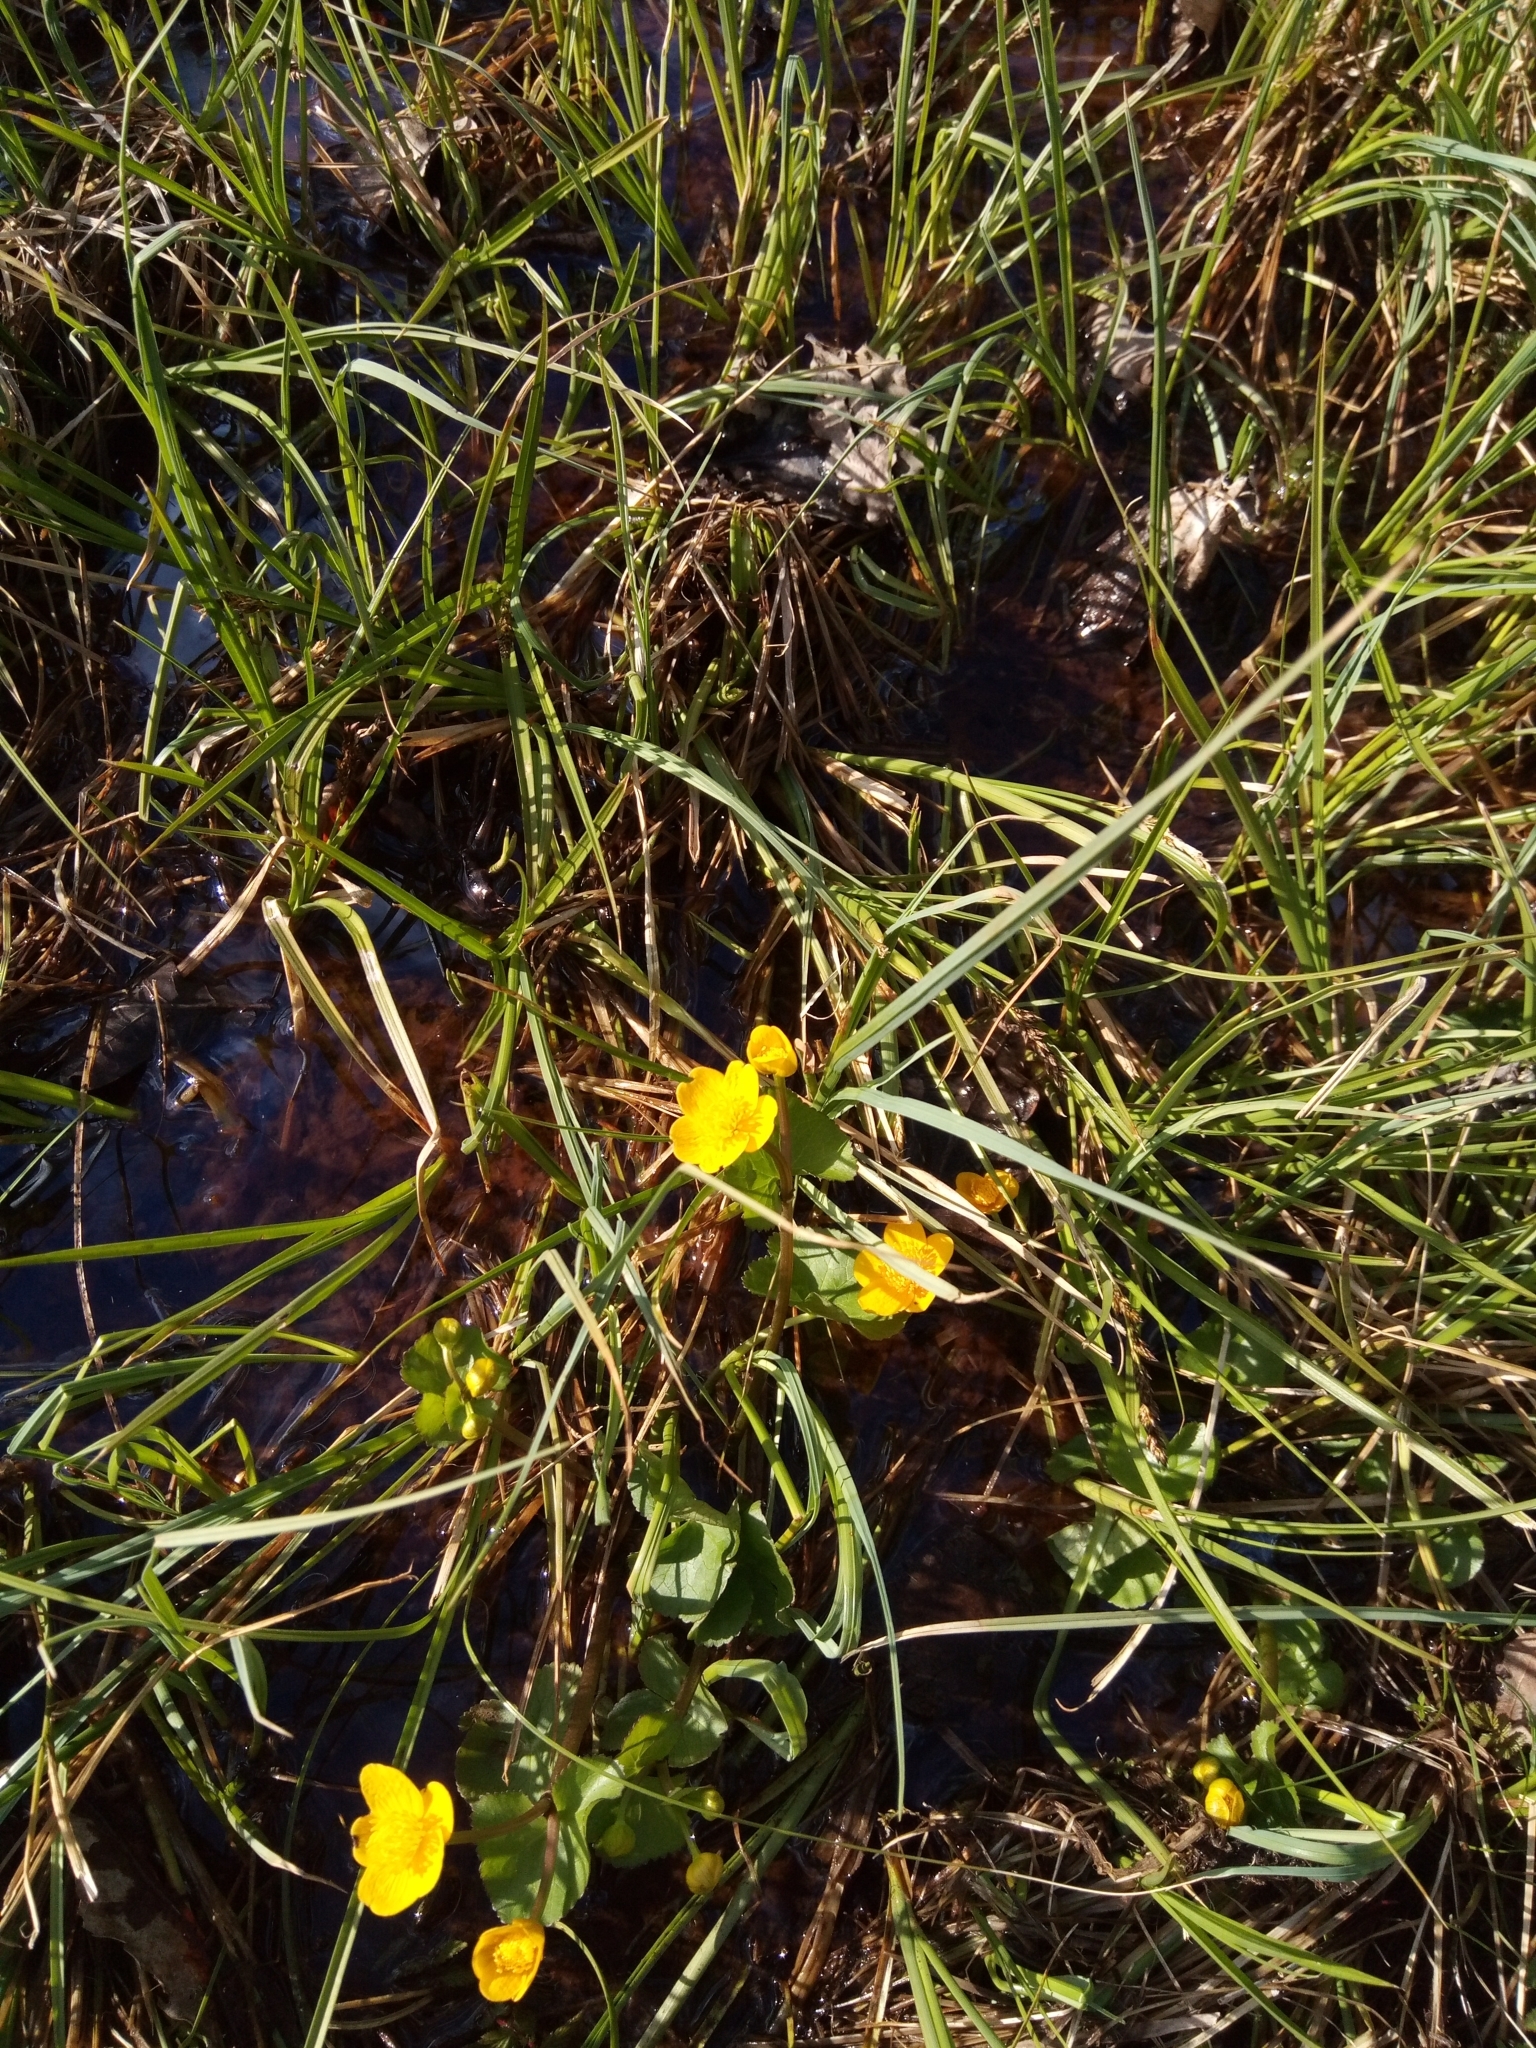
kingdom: Plantae
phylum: Tracheophyta
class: Magnoliopsida
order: Ranunculales
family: Ranunculaceae
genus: Caltha
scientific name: Caltha palustris
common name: Marsh marigold
